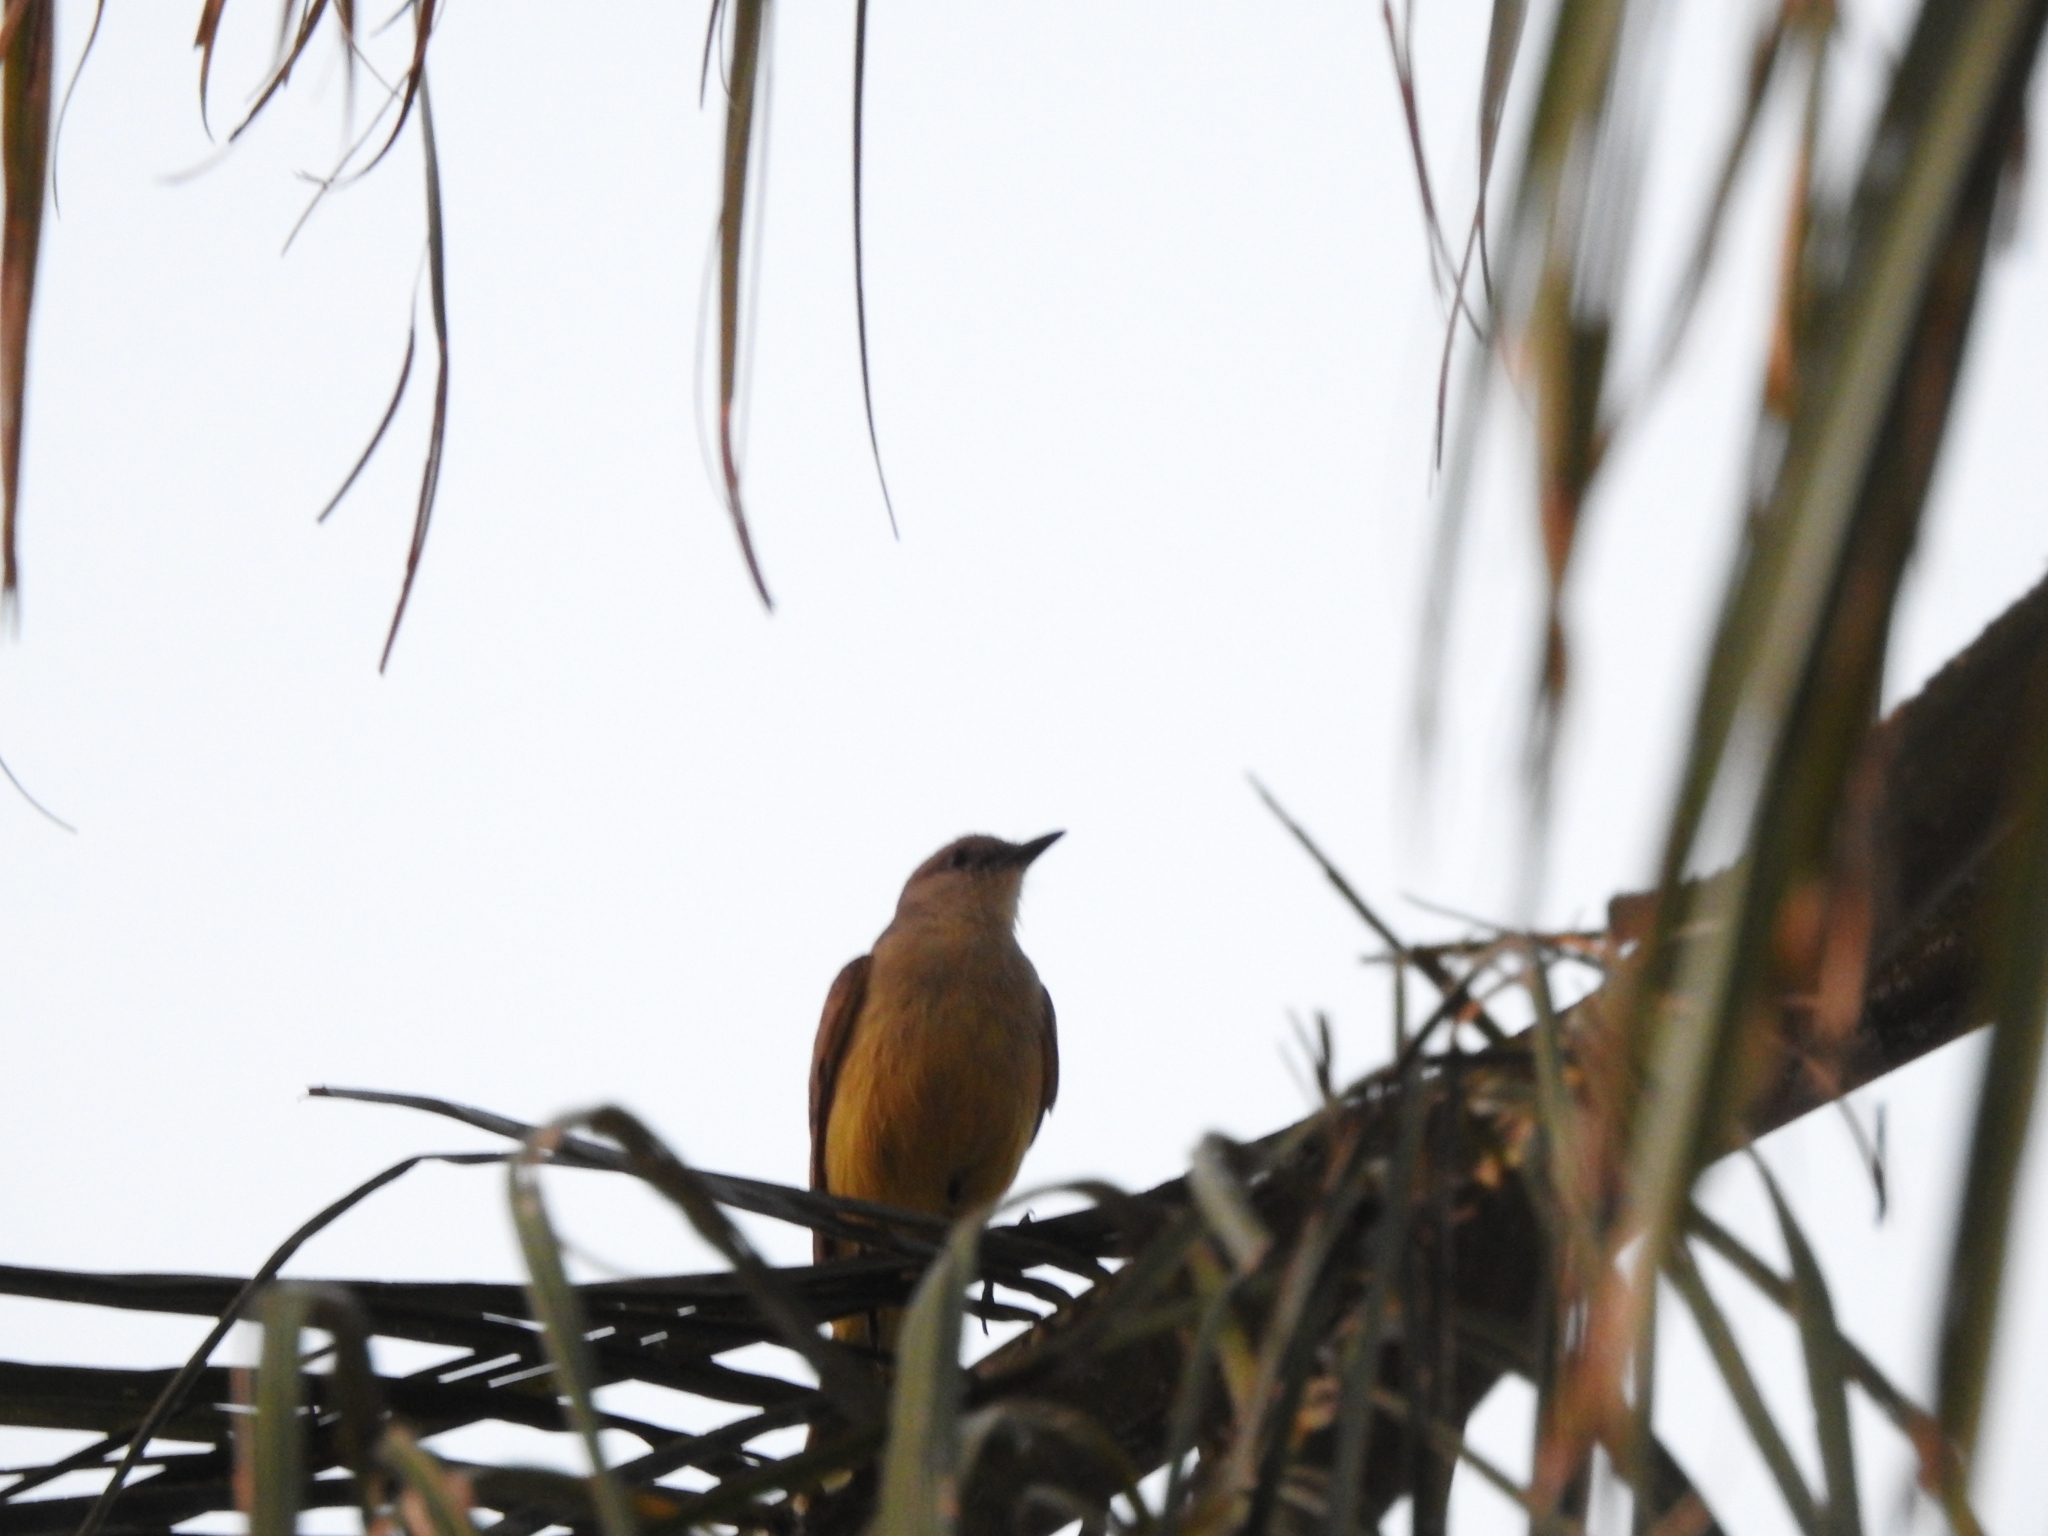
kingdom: Animalia
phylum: Chordata
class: Aves
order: Passeriformes
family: Tyrannidae
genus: Machetornis
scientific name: Machetornis rixosa
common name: Cattle tyrant
